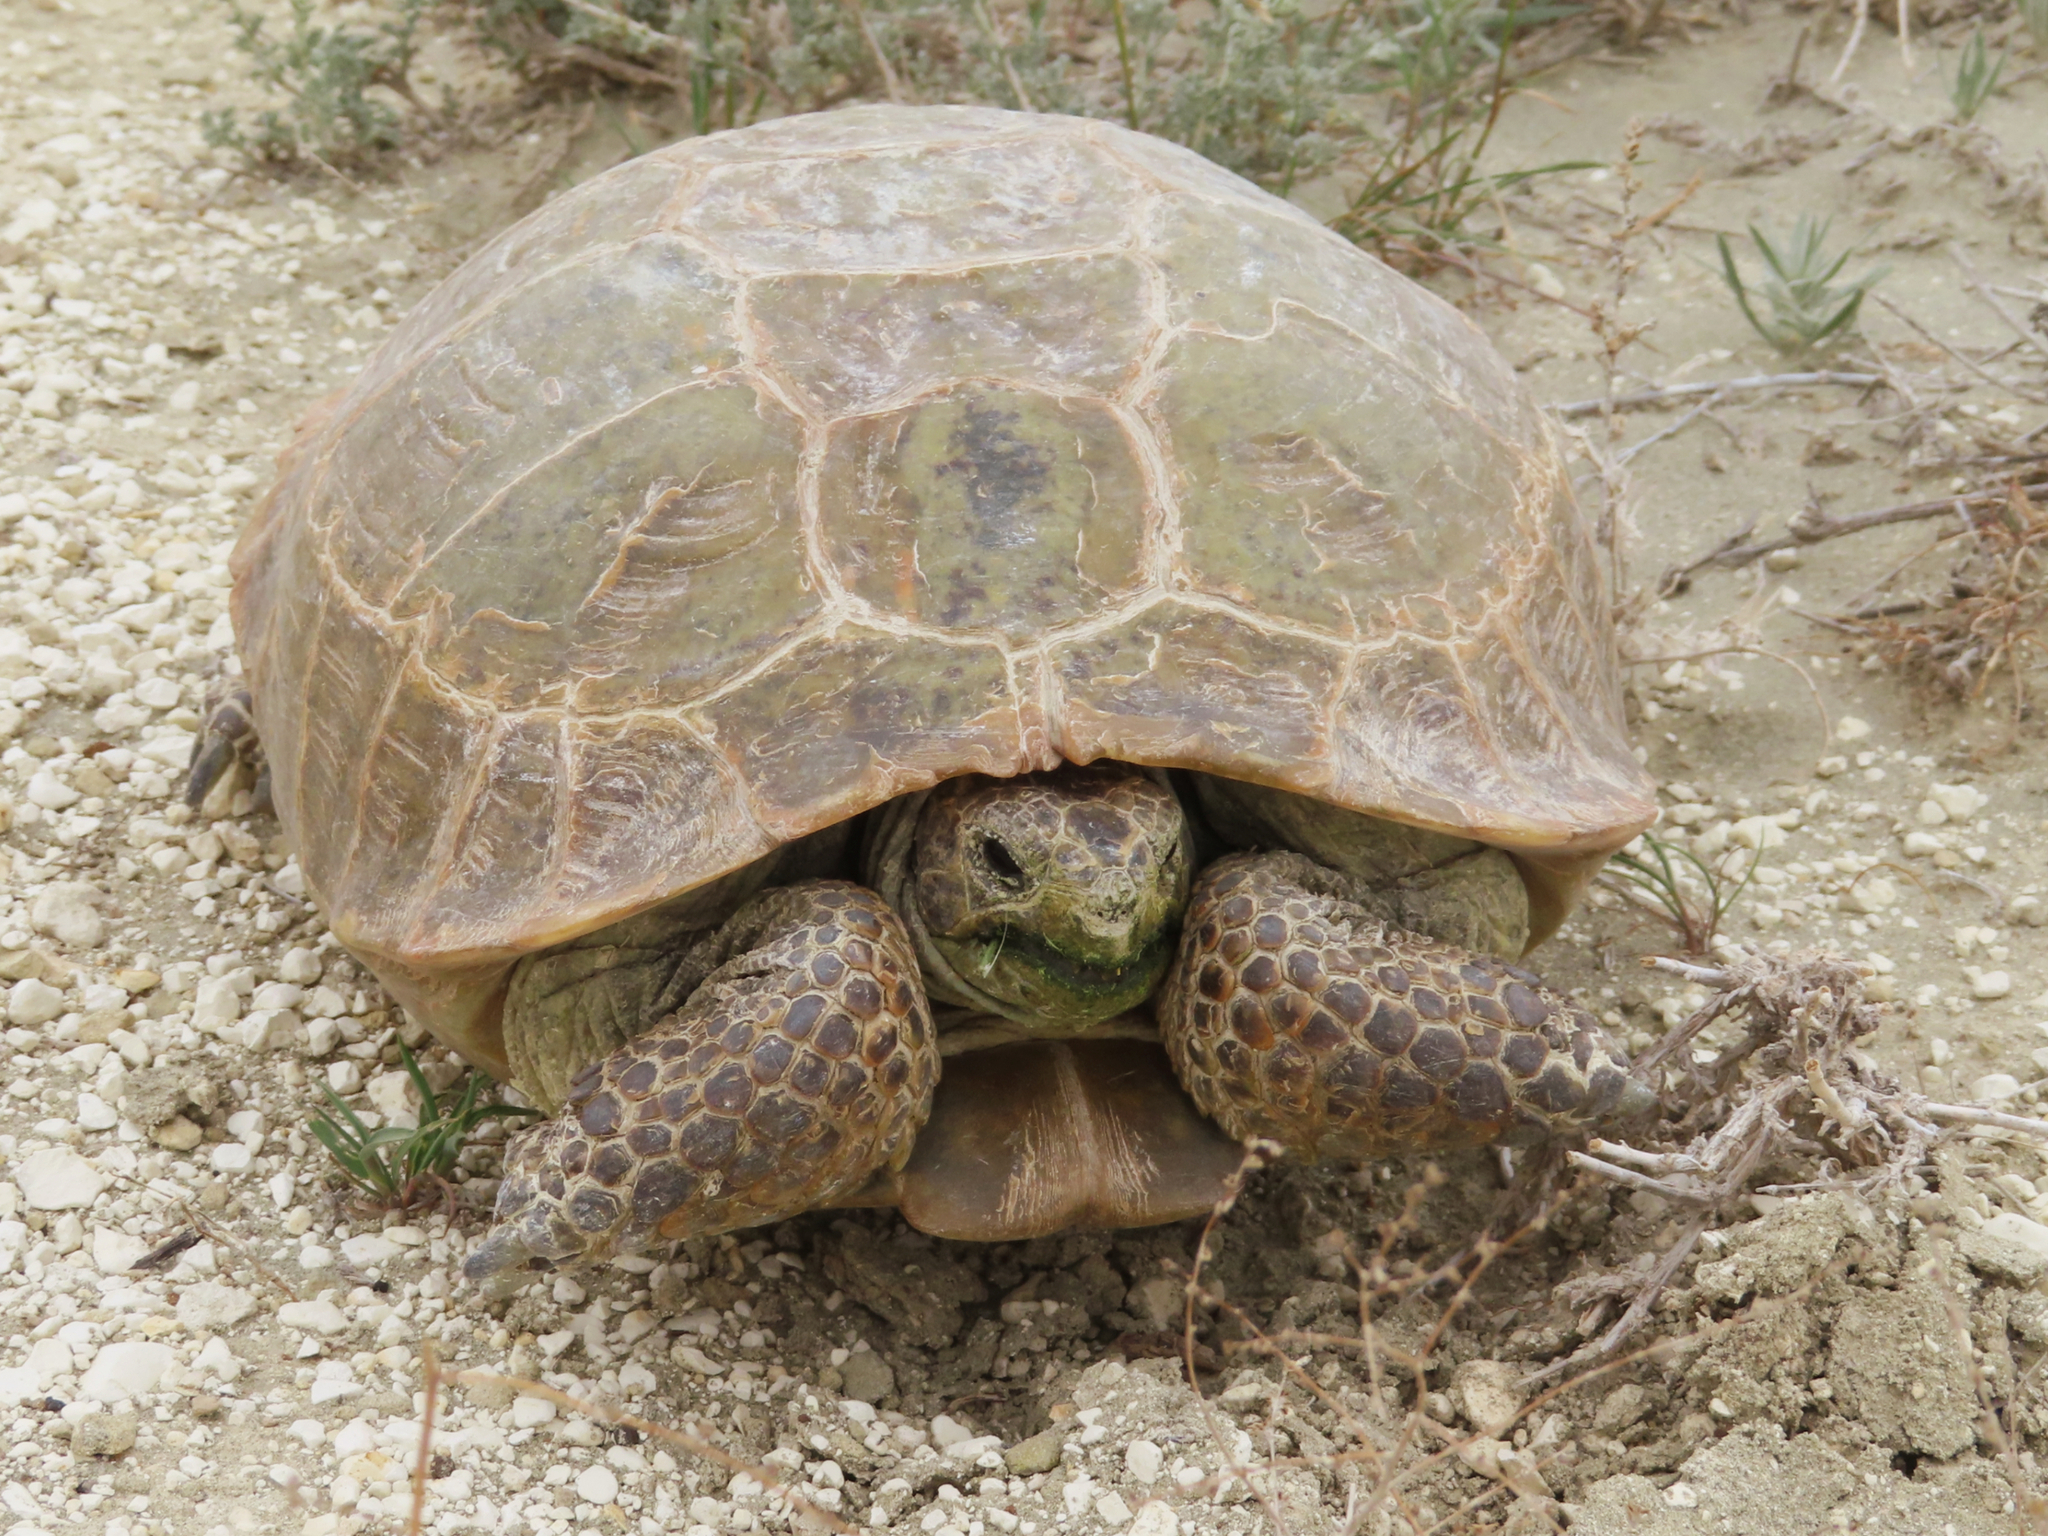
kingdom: Animalia
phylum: Chordata
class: Testudines
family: Testudinidae
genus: Testudo
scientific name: Testudo horsfieldii
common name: Central asia tortoise
